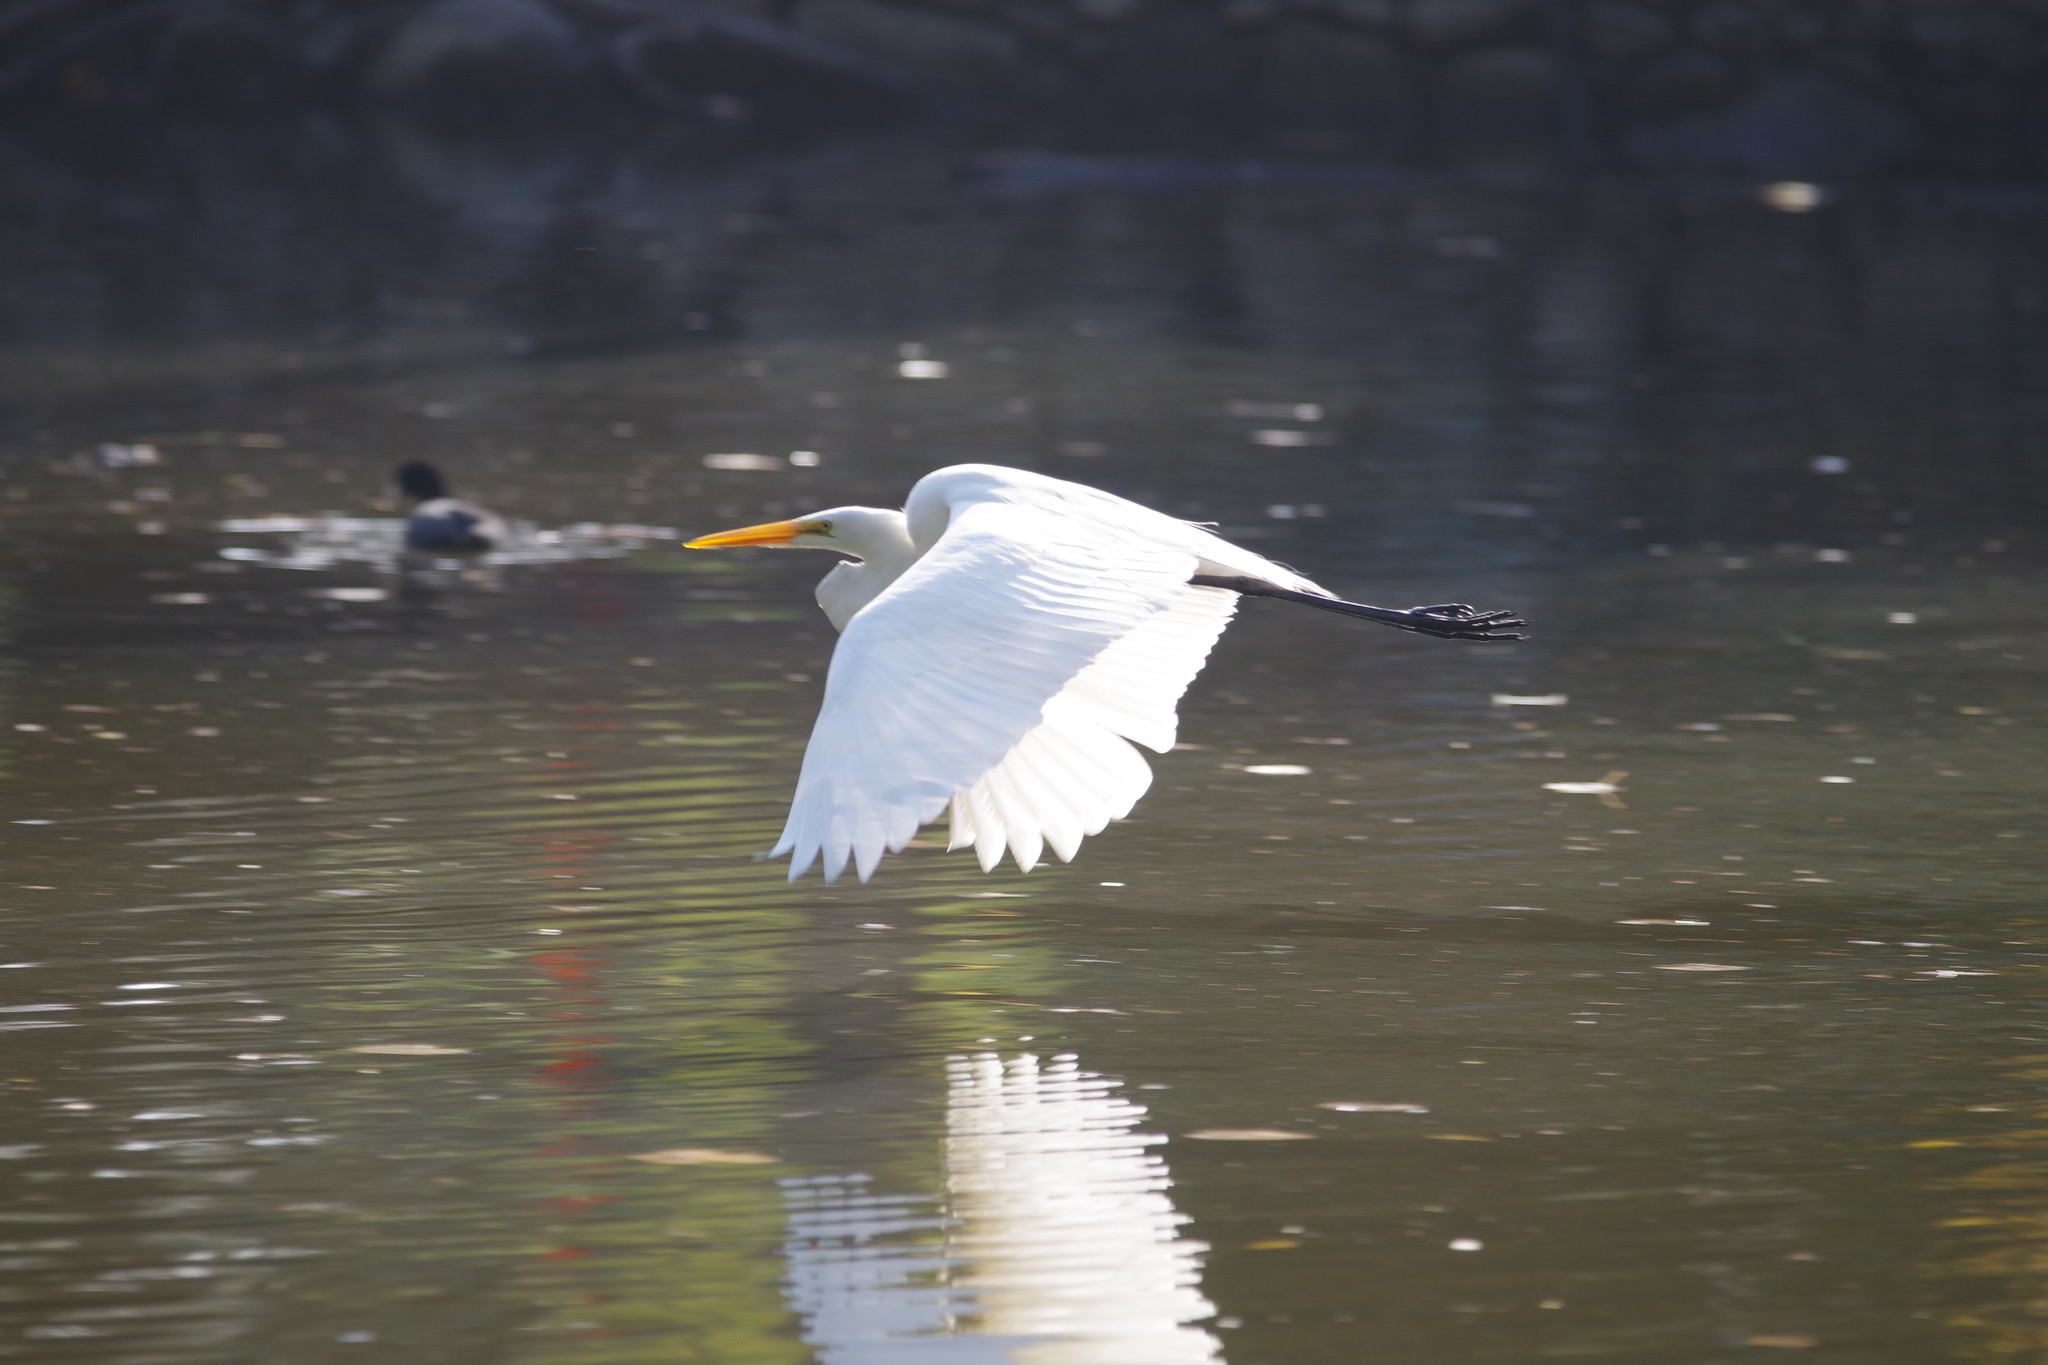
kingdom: Animalia
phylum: Chordata
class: Aves
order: Pelecaniformes
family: Ardeidae
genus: Ardea
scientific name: Ardea alba
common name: Great egret
